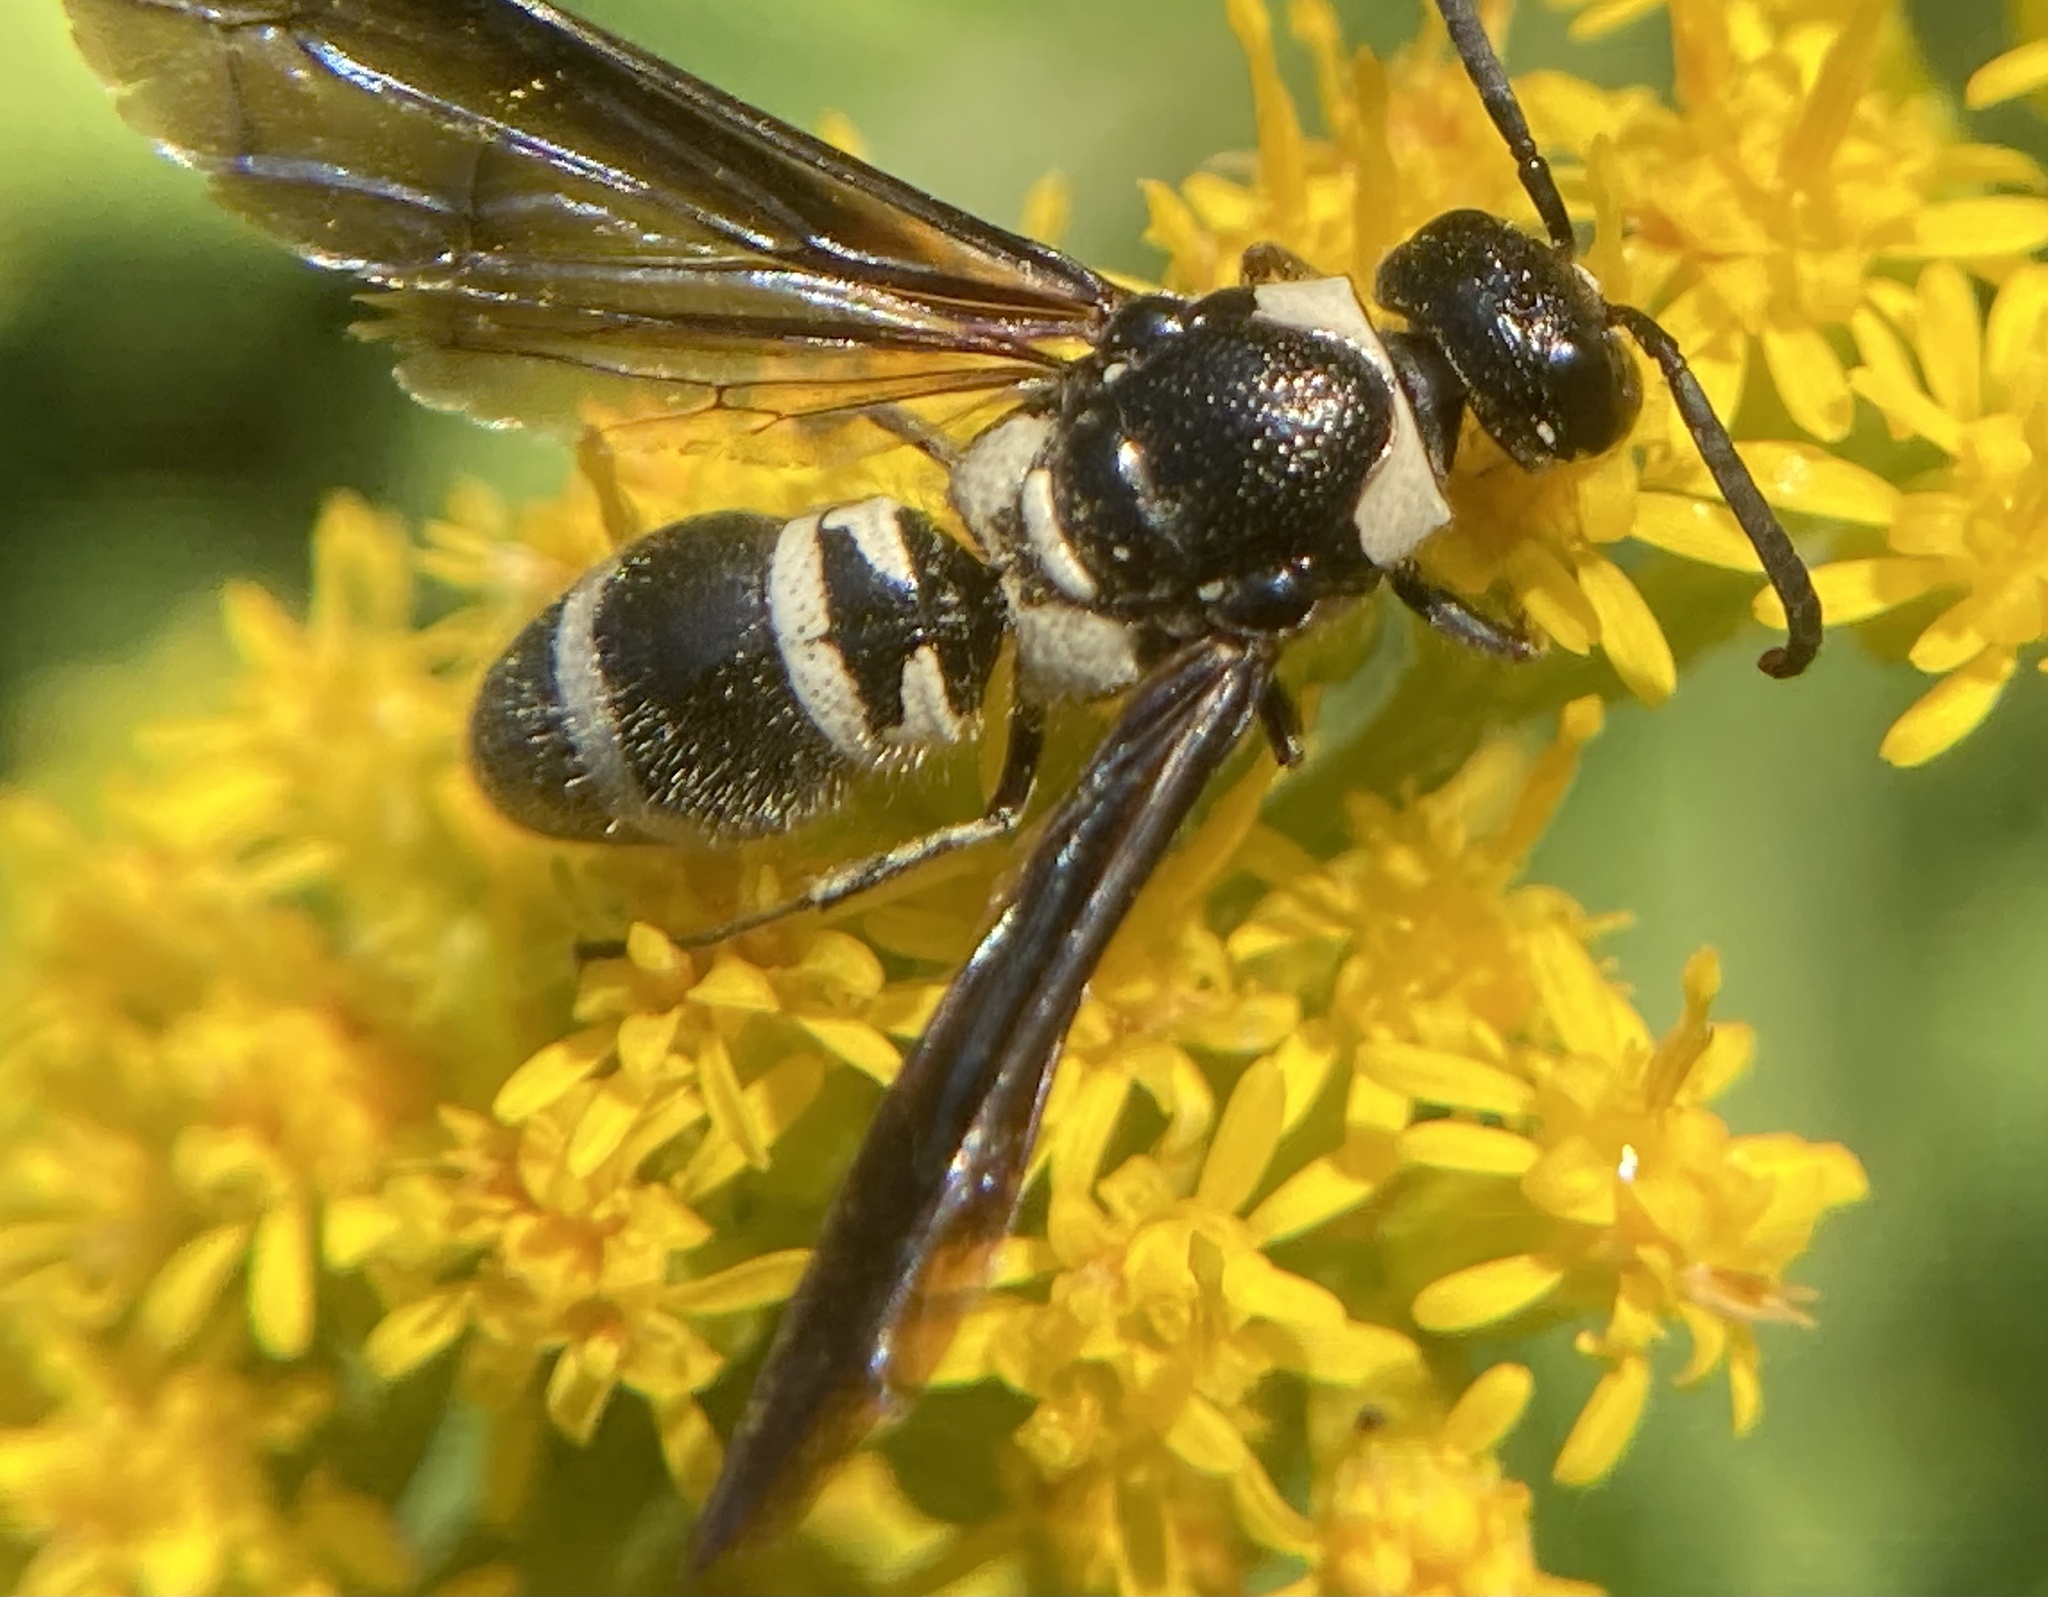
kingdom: Animalia
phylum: Arthropoda
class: Insecta
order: Hymenoptera
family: Eumenidae
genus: Pseudodynerus
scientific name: Pseudodynerus quadrisectus
